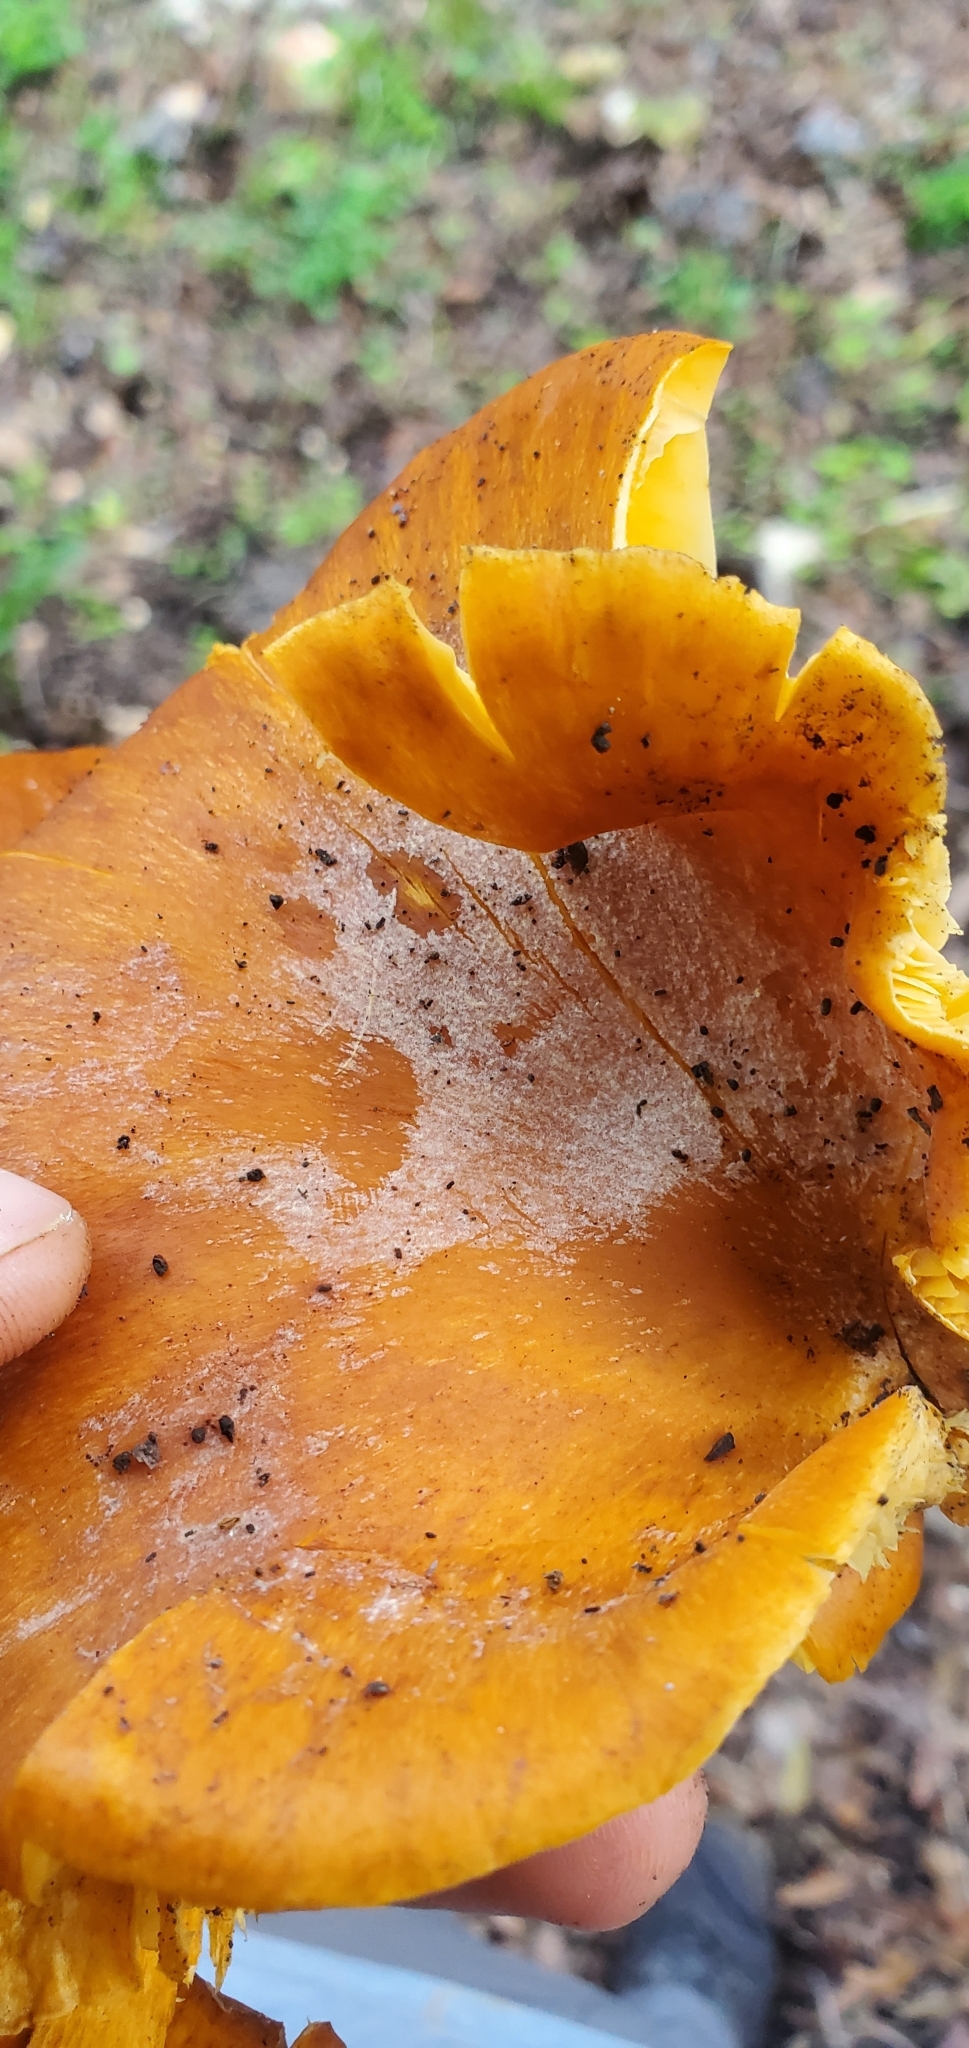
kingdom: Fungi
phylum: Basidiomycota
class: Agaricomycetes
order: Agaricales
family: Omphalotaceae
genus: Omphalotus
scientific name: Omphalotus olearius
